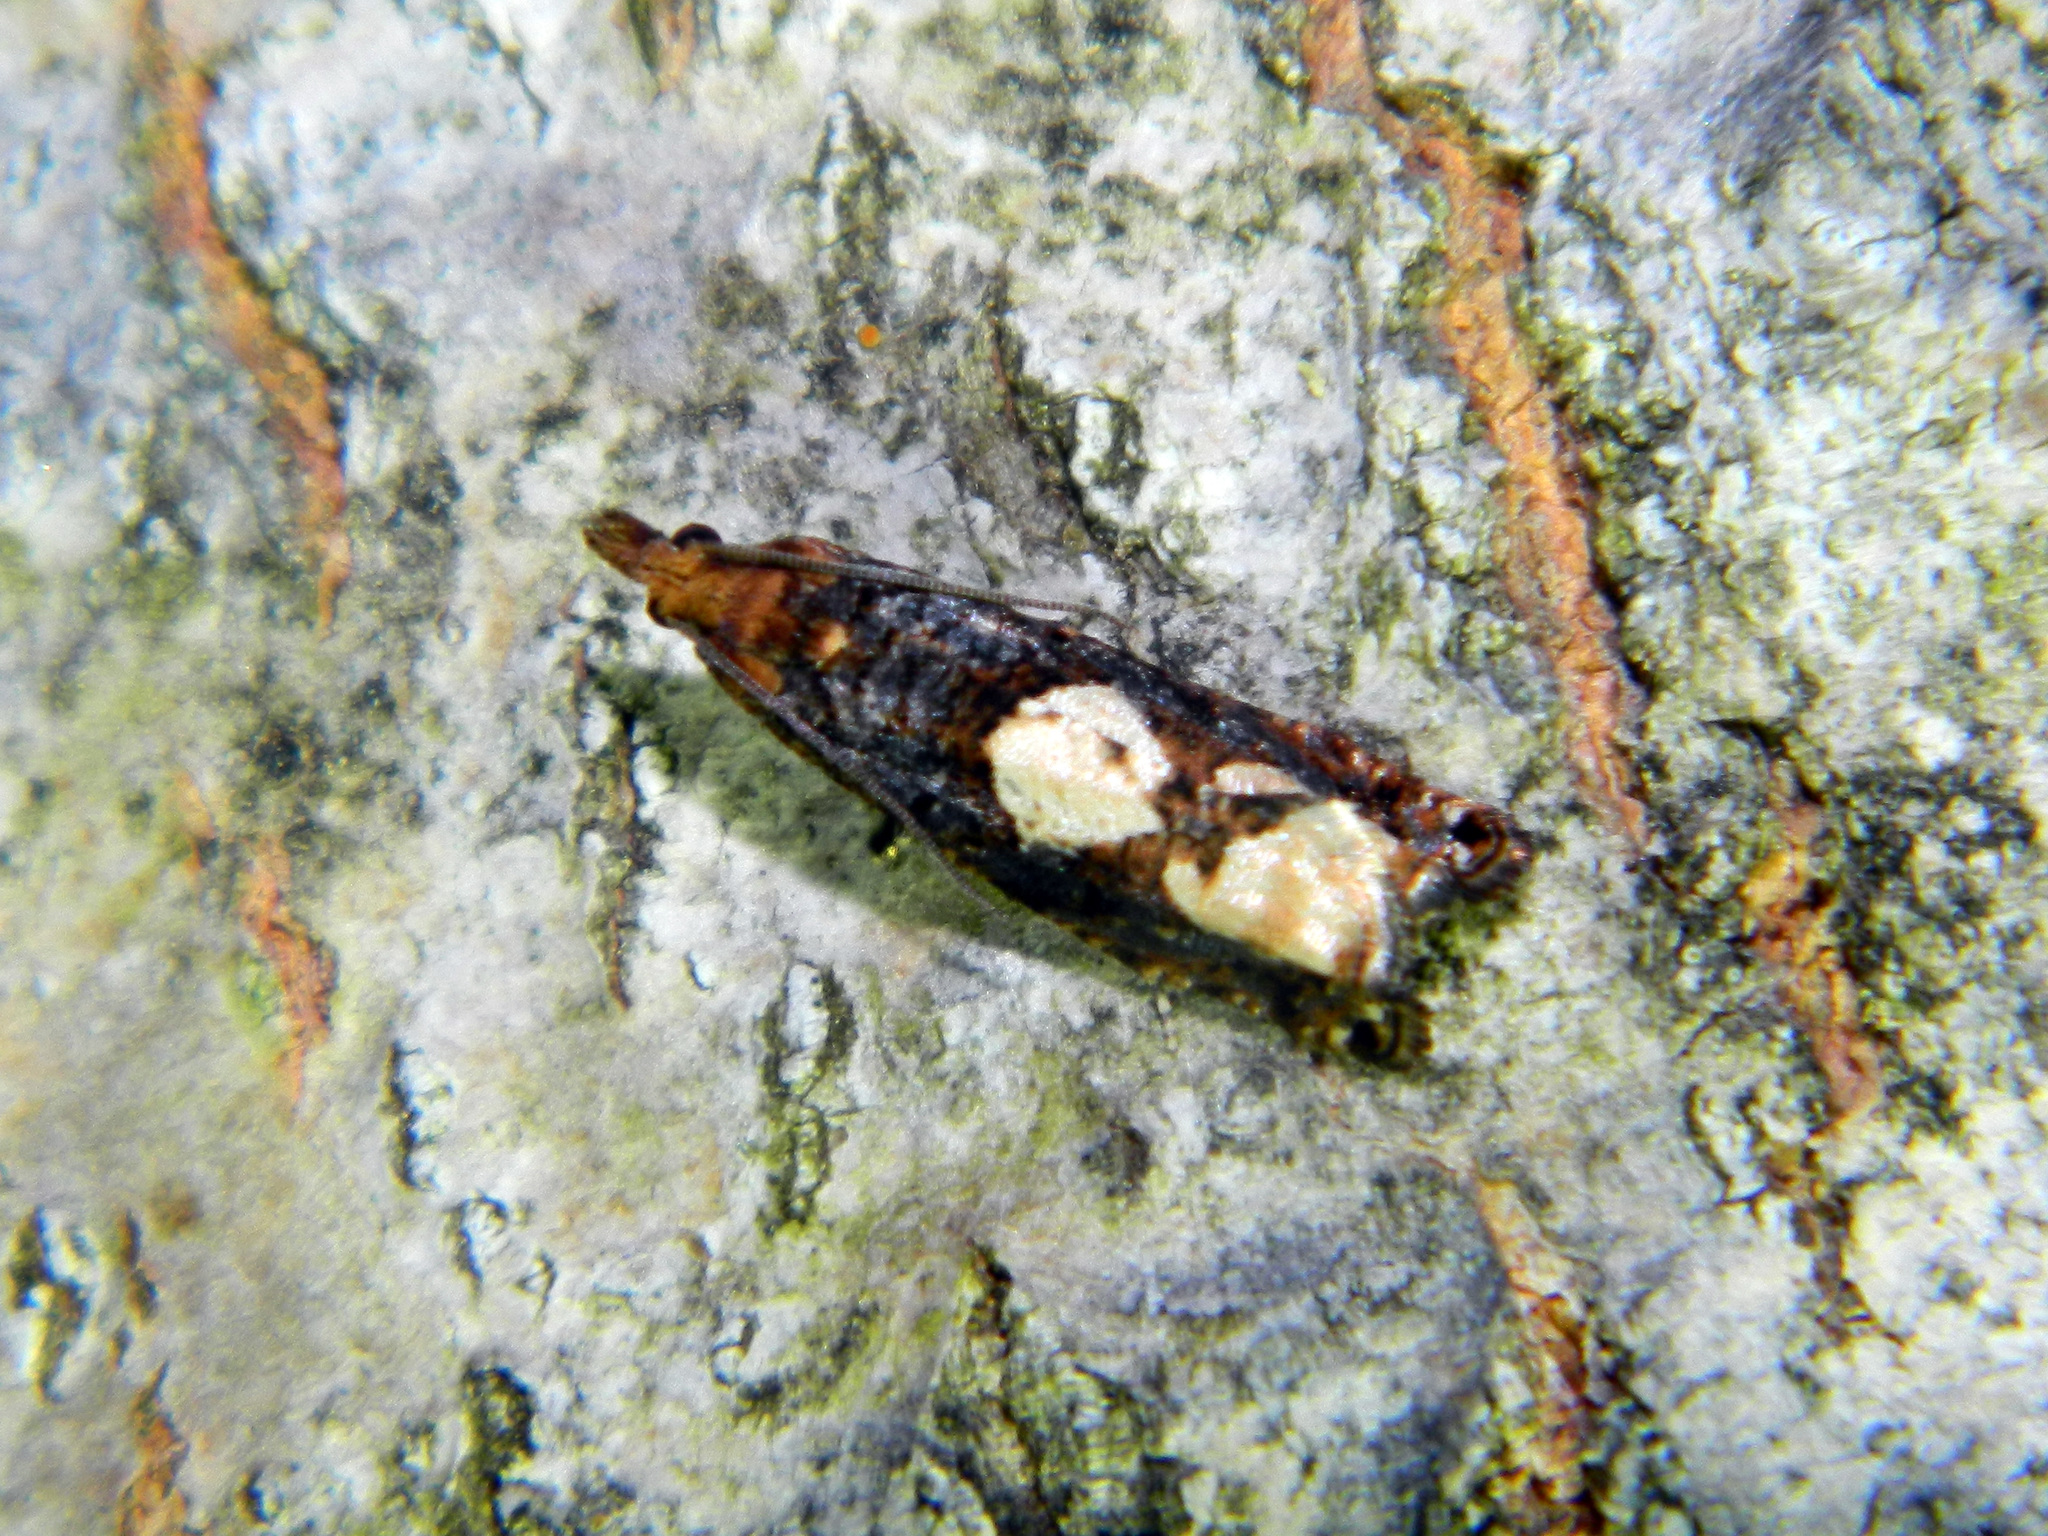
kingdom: Animalia
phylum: Arthropoda
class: Insecta
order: Lepidoptera
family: Tortricidae
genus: Epinotia
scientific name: Epinotia trigonella
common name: White-blotch bell
